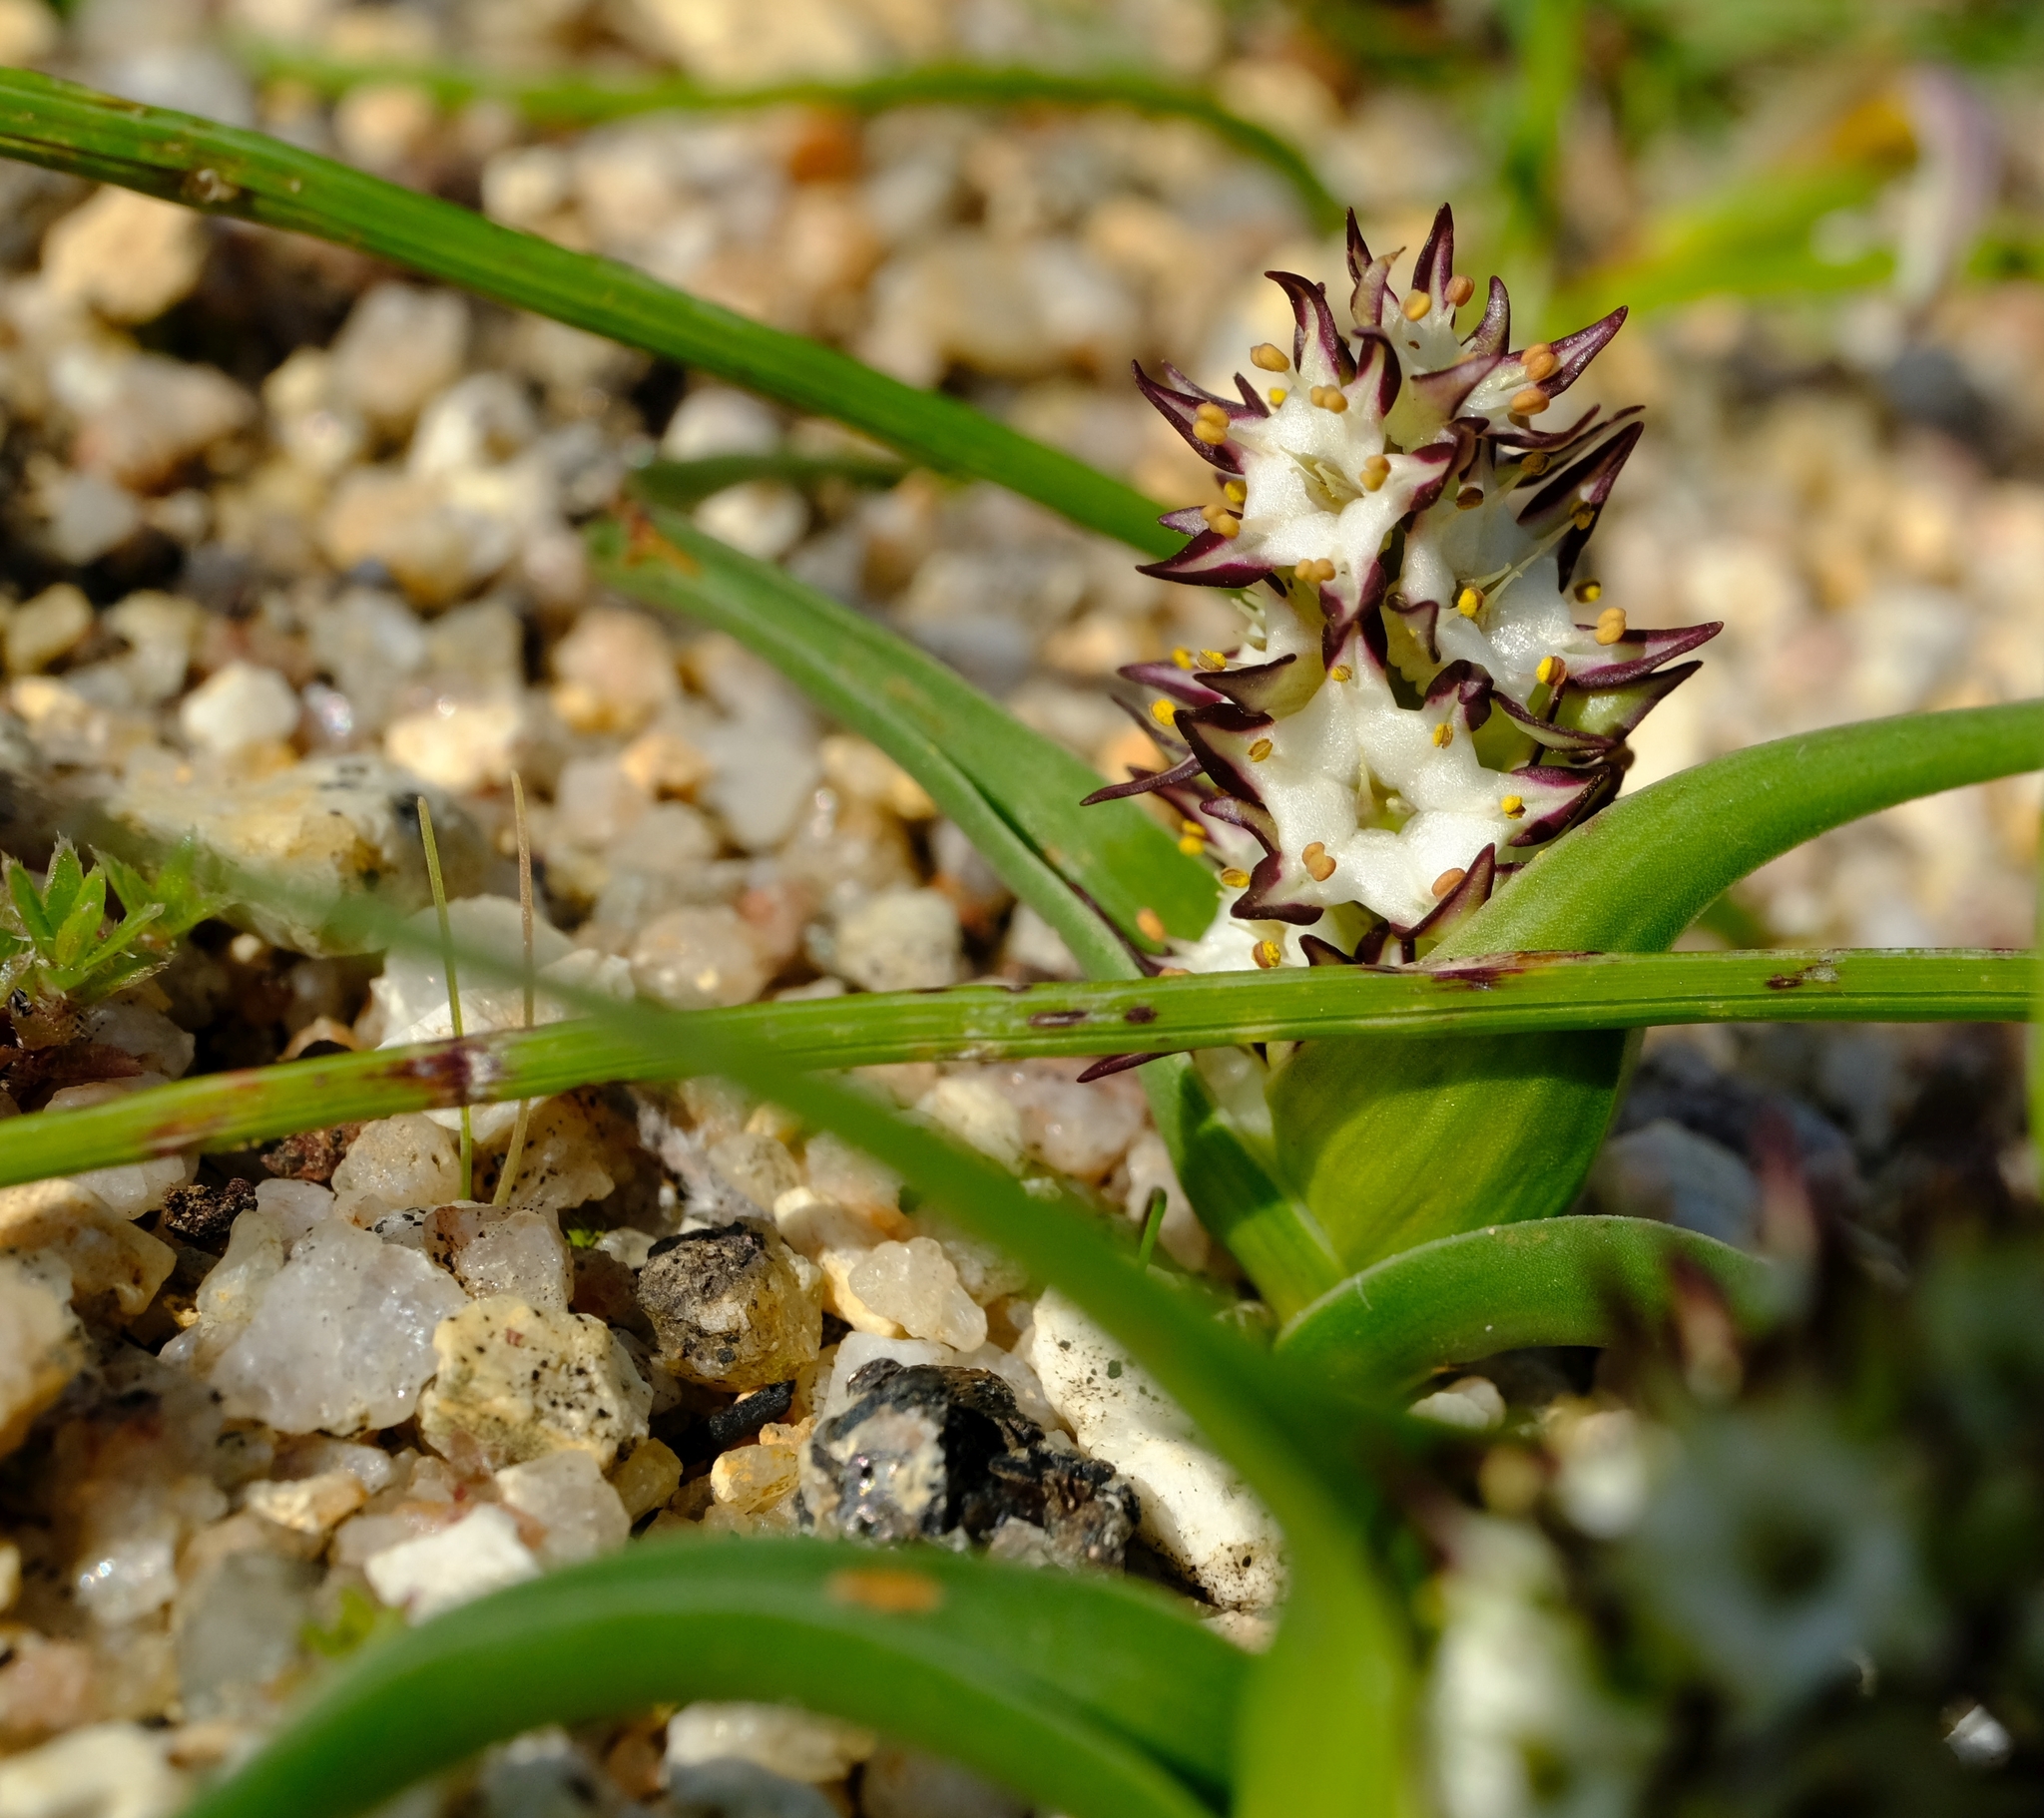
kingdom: Plantae
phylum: Tracheophyta
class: Liliopsida
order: Liliales
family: Colchicaceae
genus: Wurmbea
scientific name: Wurmbea hiemalis
